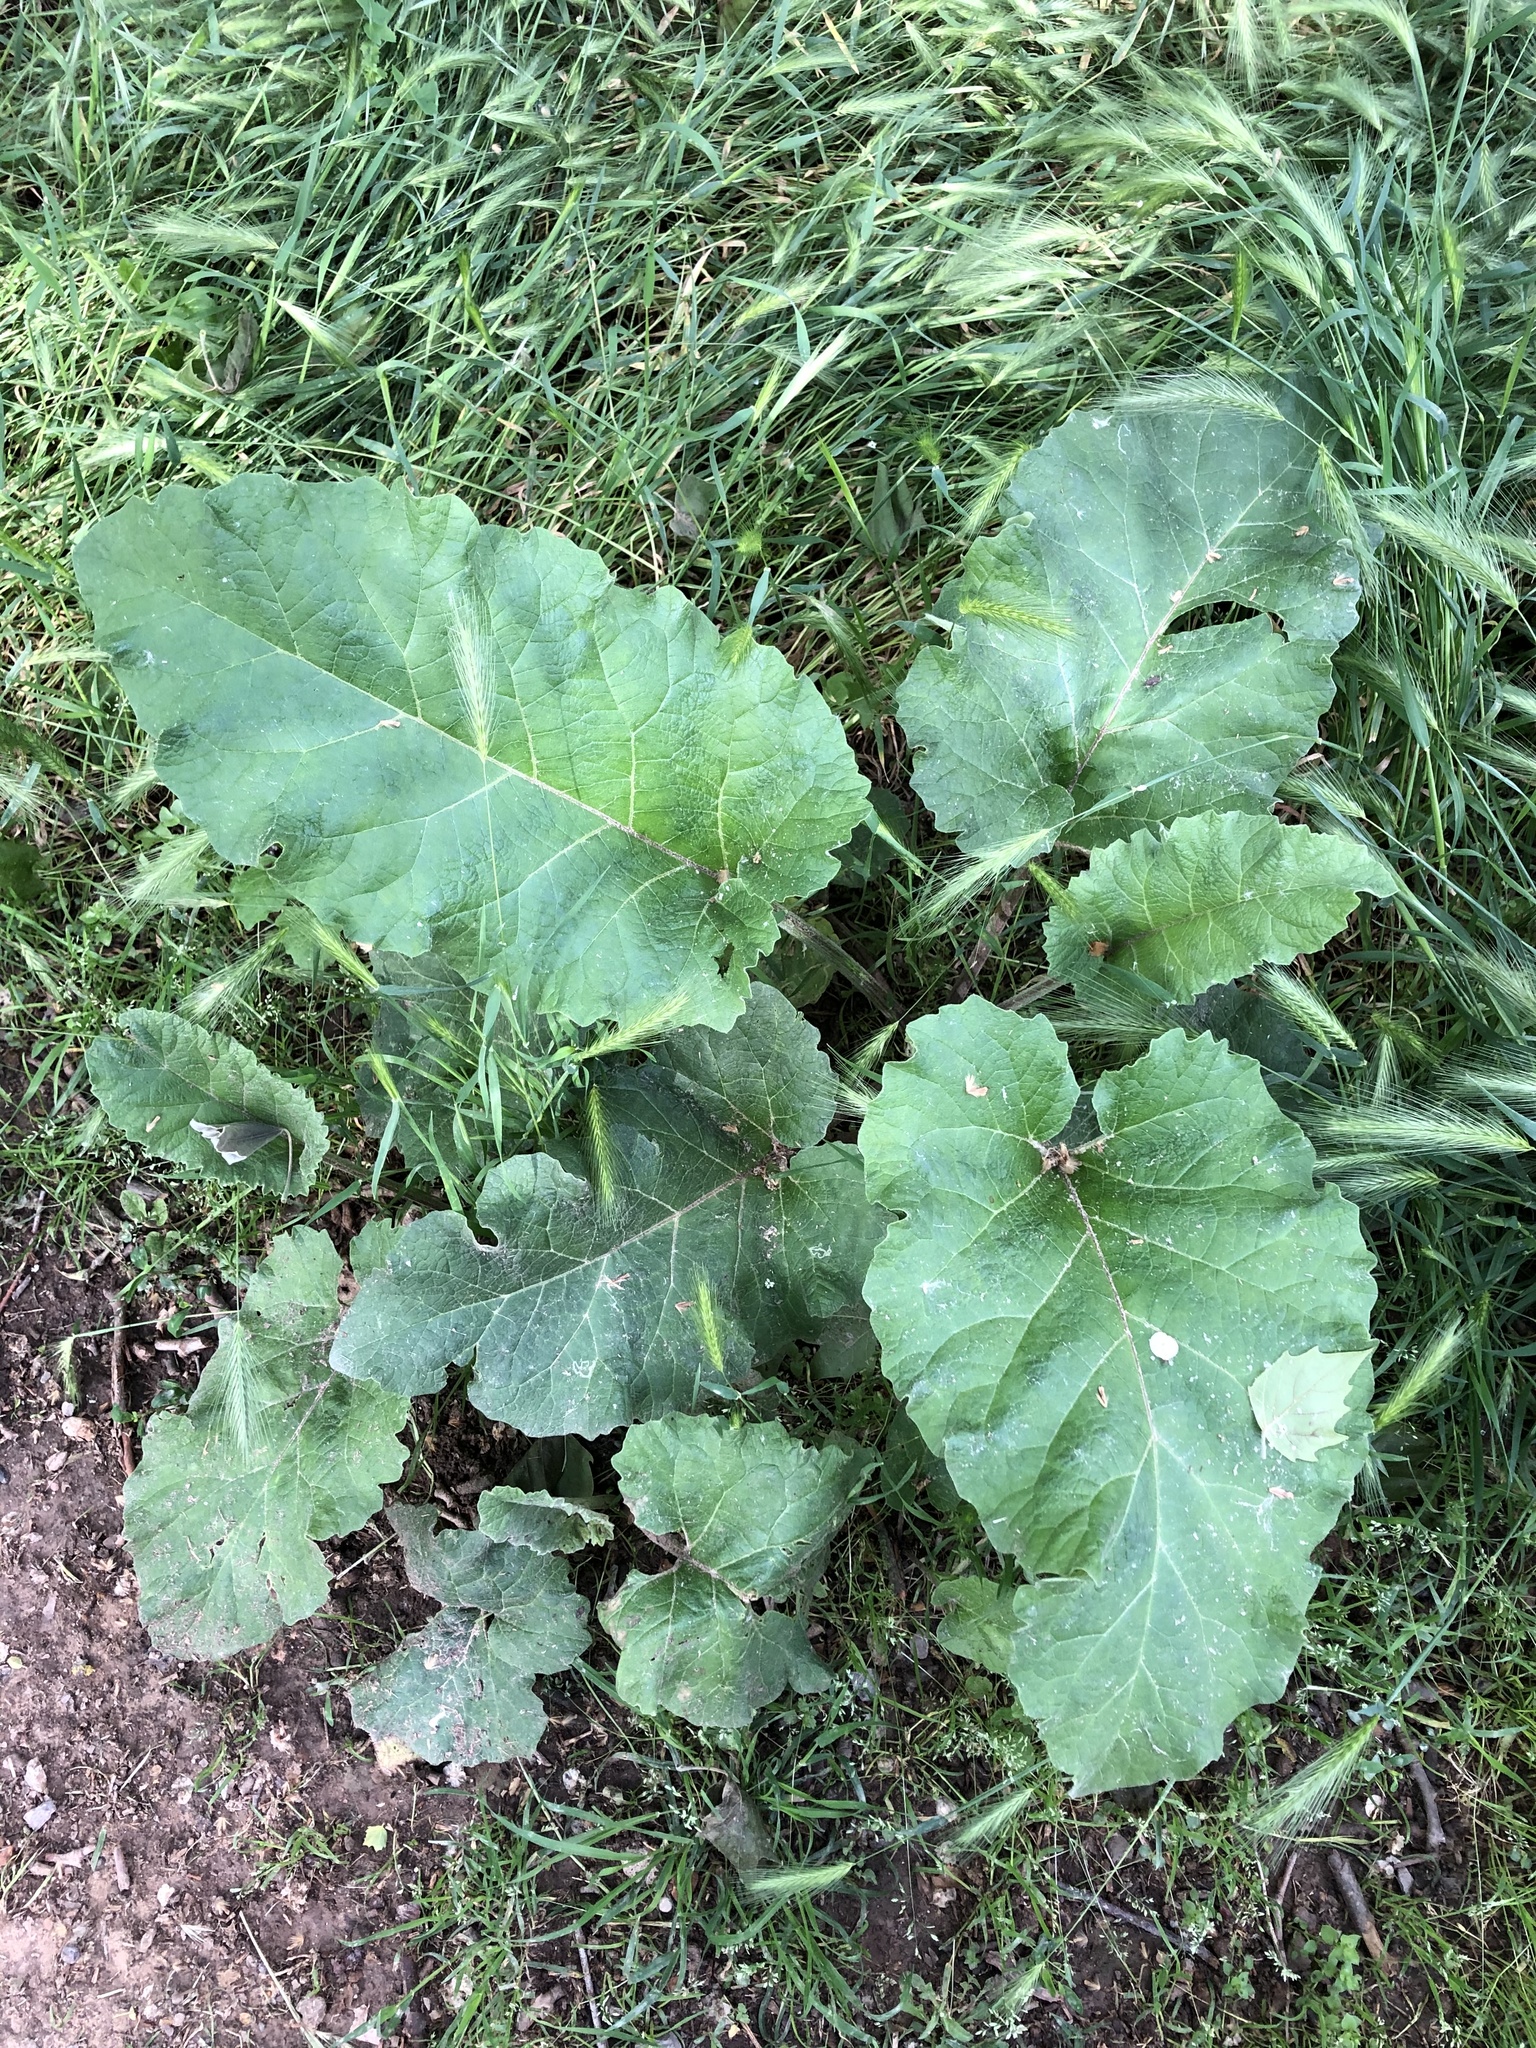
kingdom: Plantae
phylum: Tracheophyta
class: Magnoliopsida
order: Asterales
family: Asteraceae
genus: Arctium
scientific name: Arctium minus
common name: Lesser burdock
